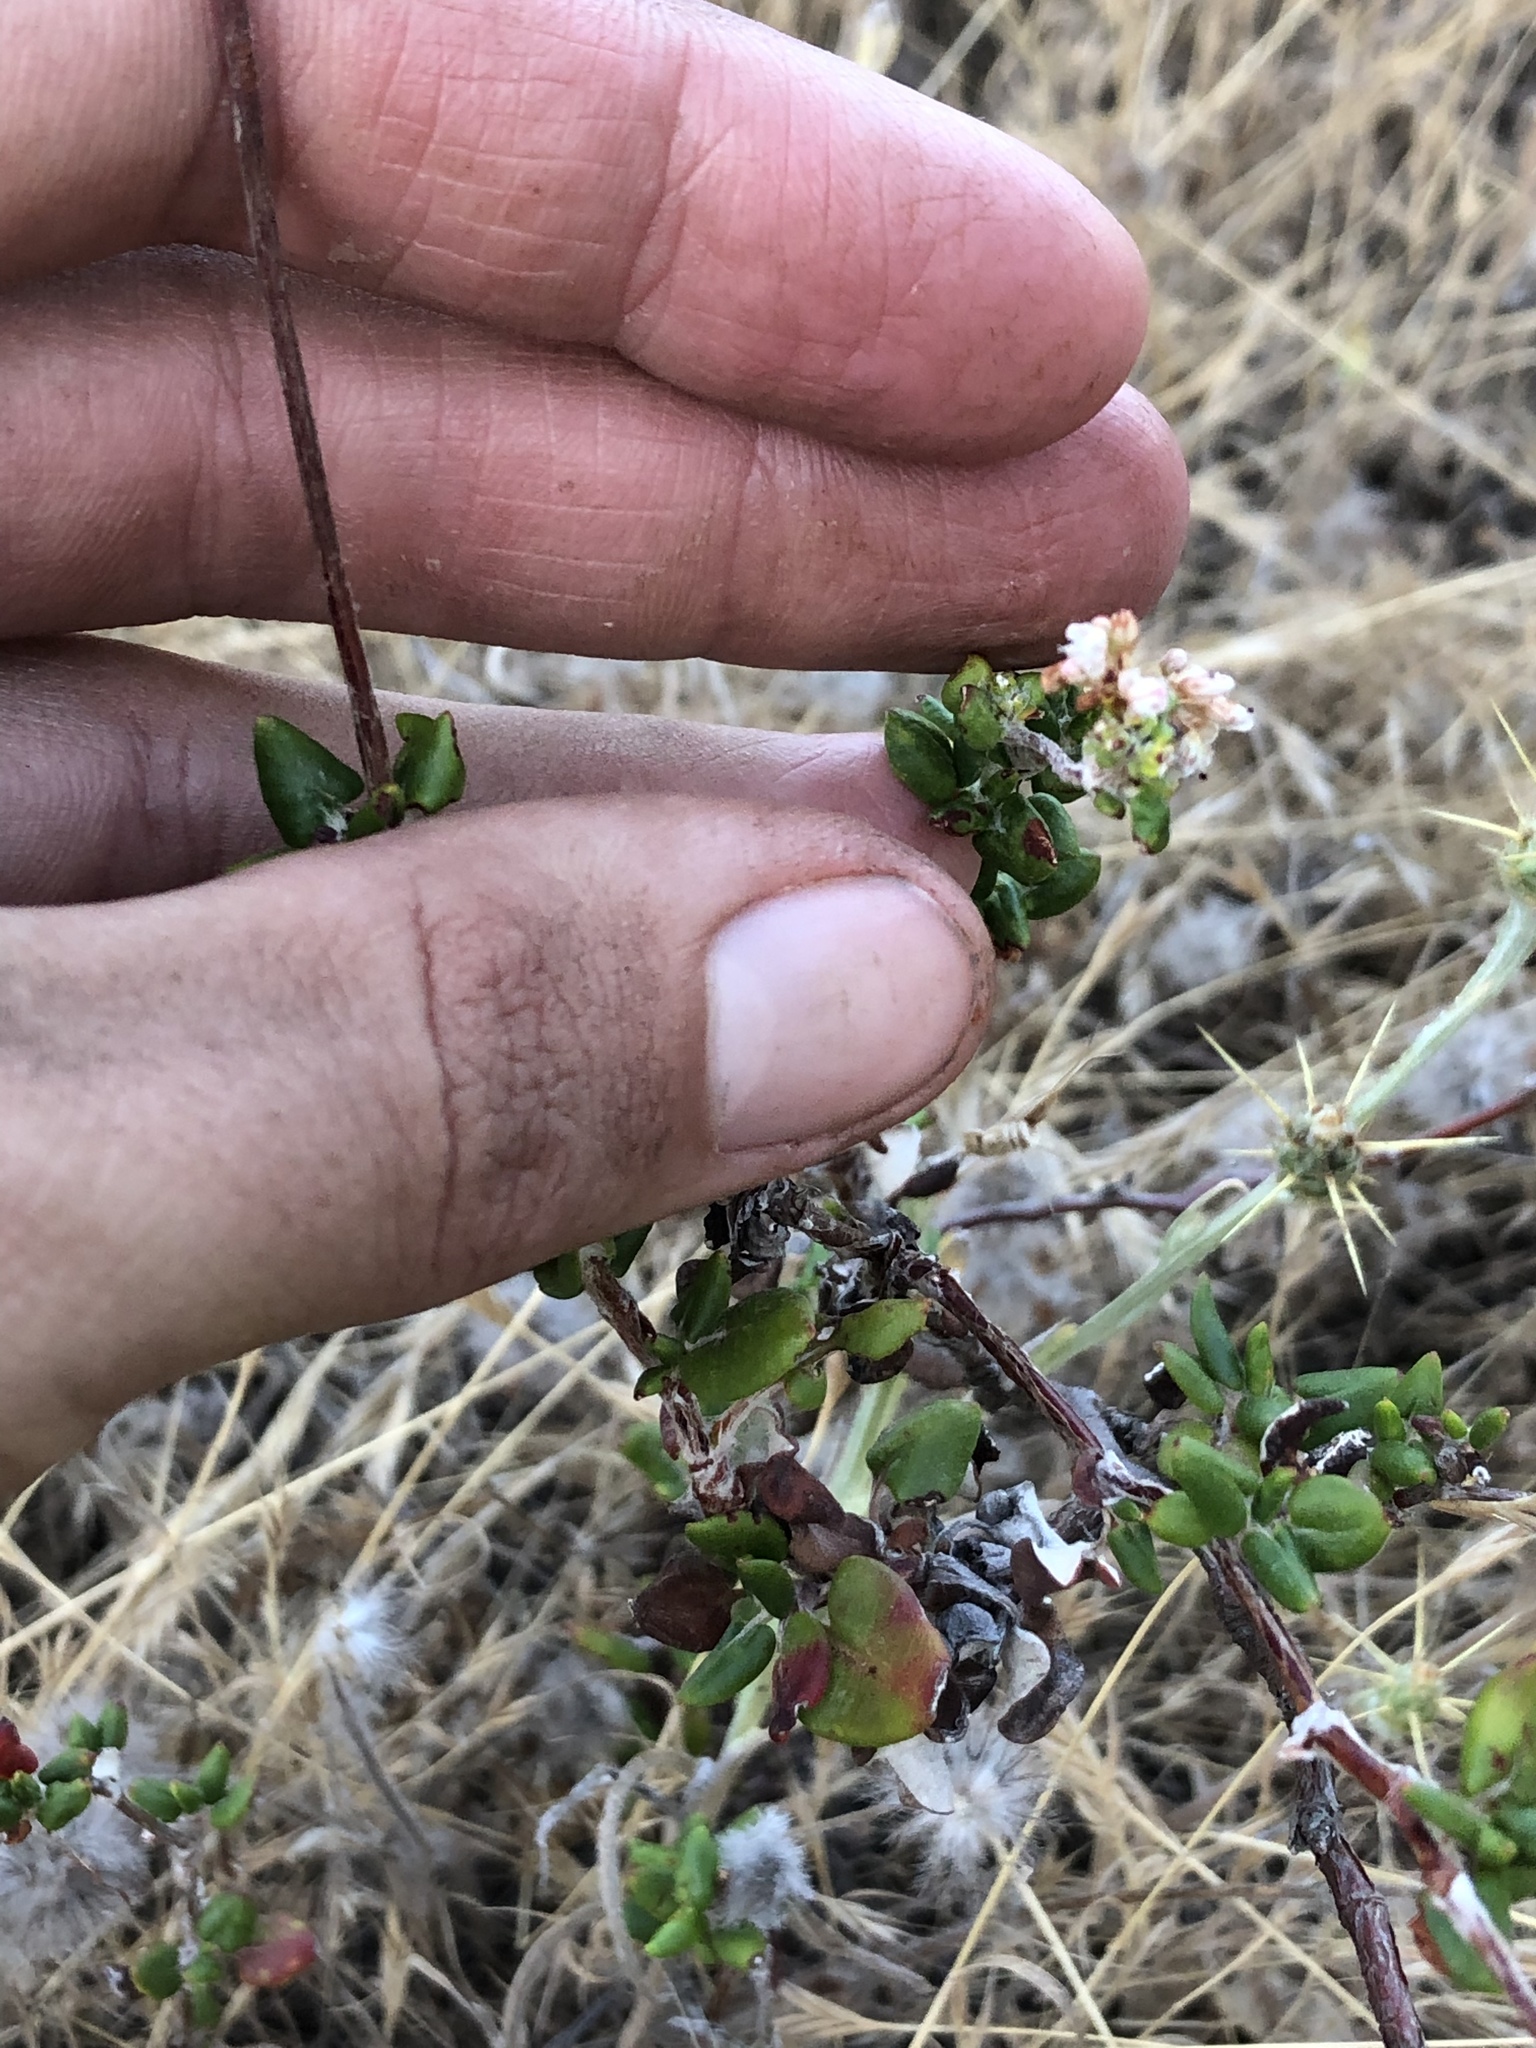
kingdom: Plantae
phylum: Tracheophyta
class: Magnoliopsida
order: Caryophyllales
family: Polygonaceae
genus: Eriogonum
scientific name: Eriogonum parvifolium
